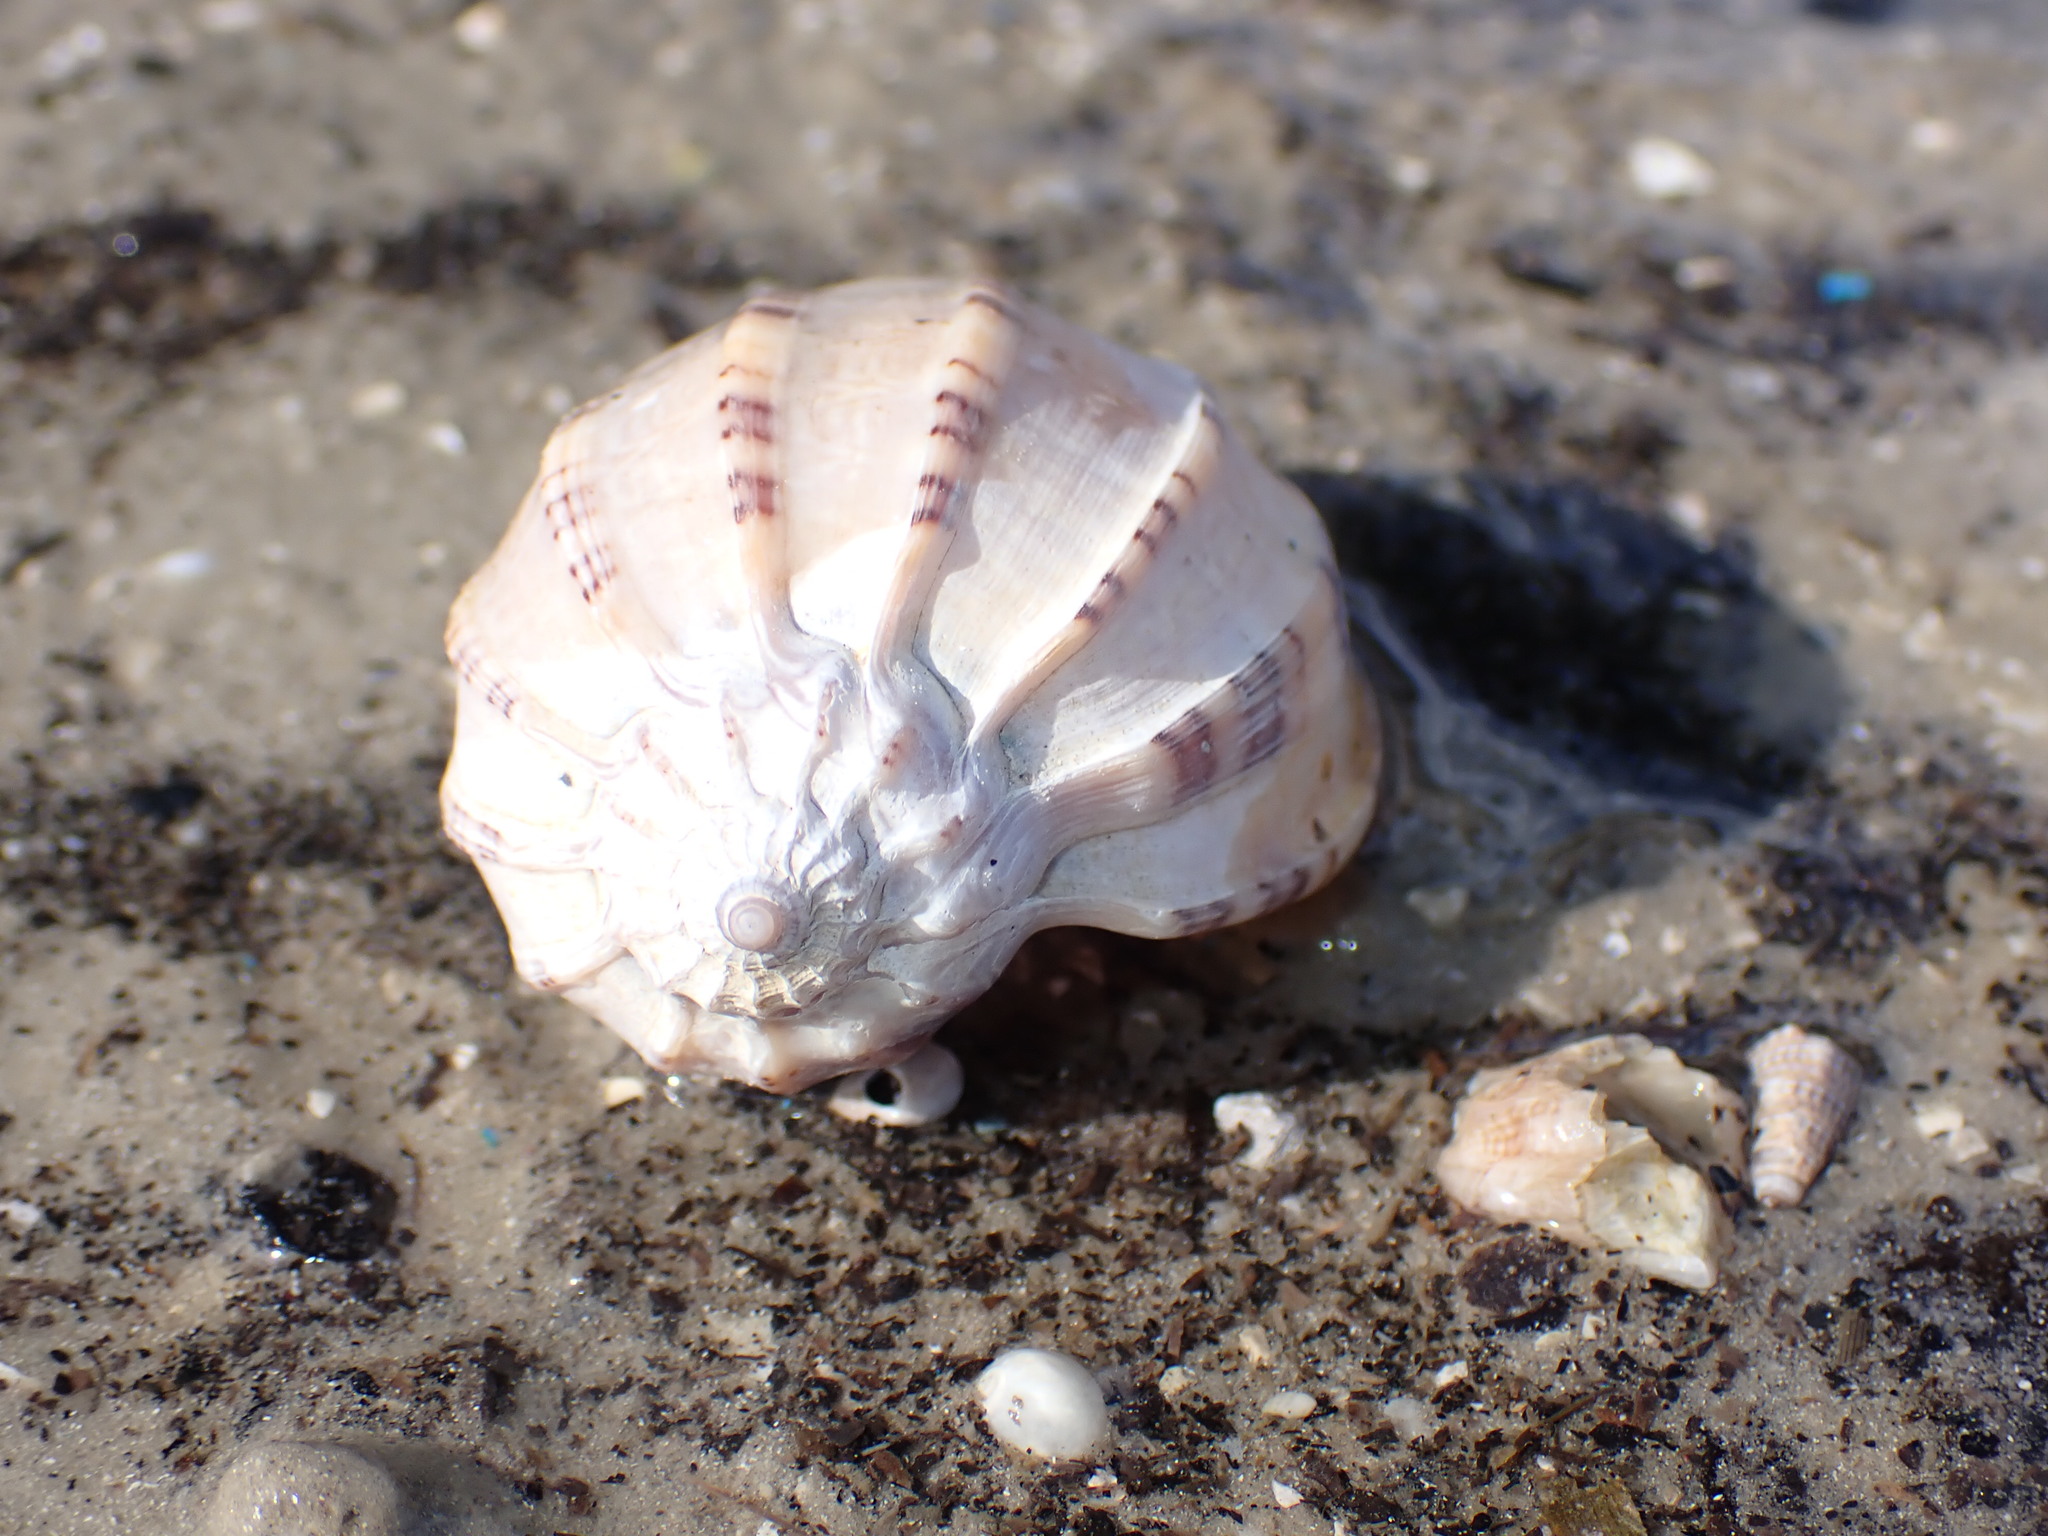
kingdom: Animalia
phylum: Mollusca
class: Gastropoda
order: Neogastropoda
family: Harpidae
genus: Harpa
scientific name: Harpa davidis
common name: Madras harp
